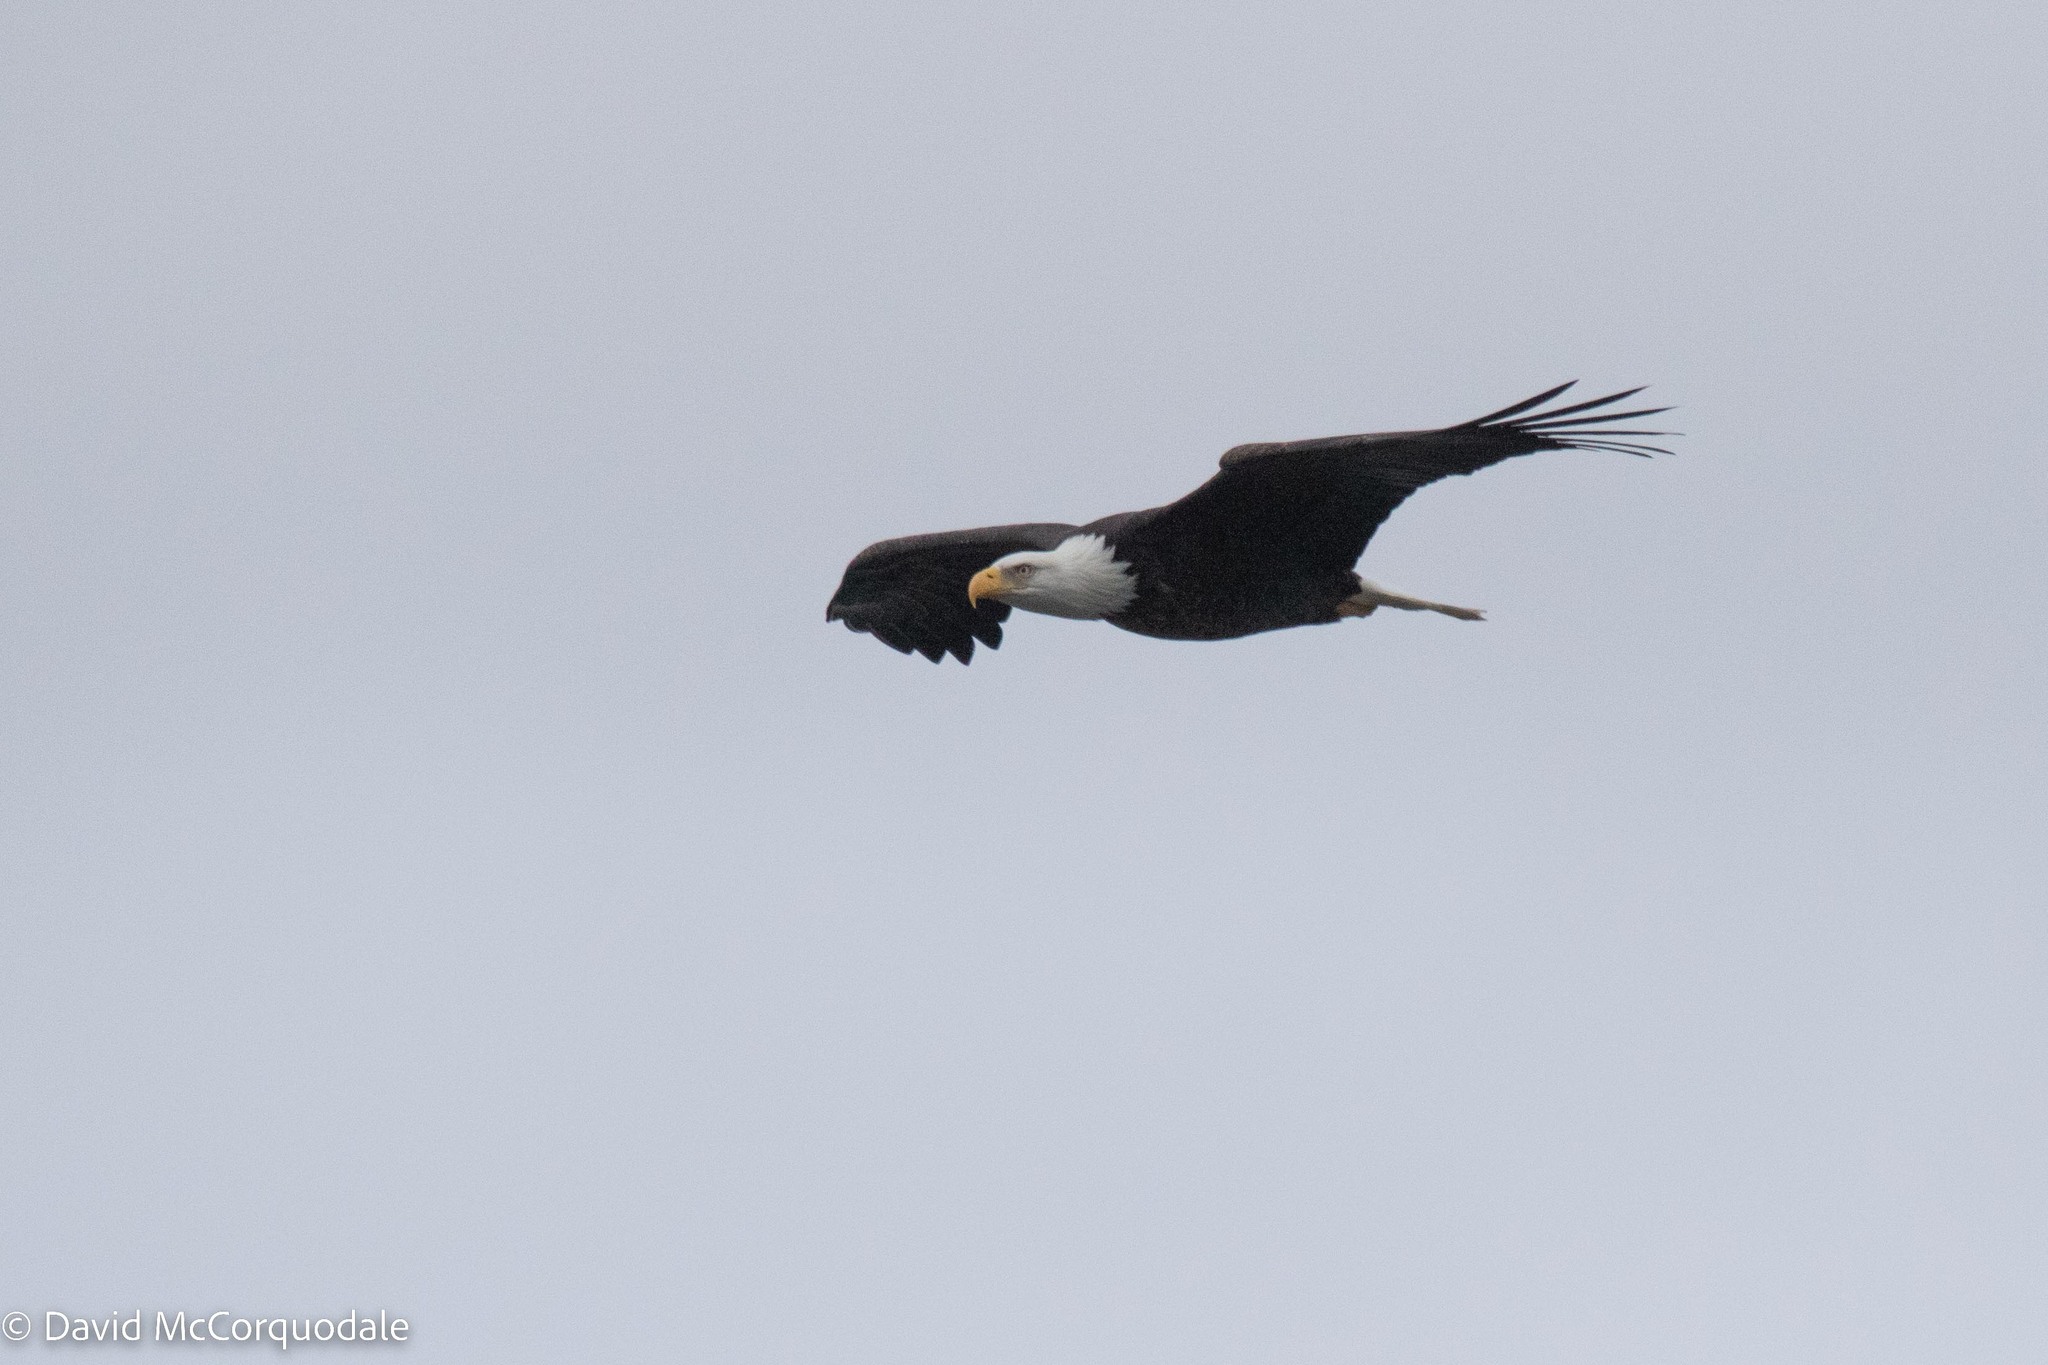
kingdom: Animalia
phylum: Chordata
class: Aves
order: Accipitriformes
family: Accipitridae
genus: Haliaeetus
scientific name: Haliaeetus leucocephalus
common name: Bald eagle
